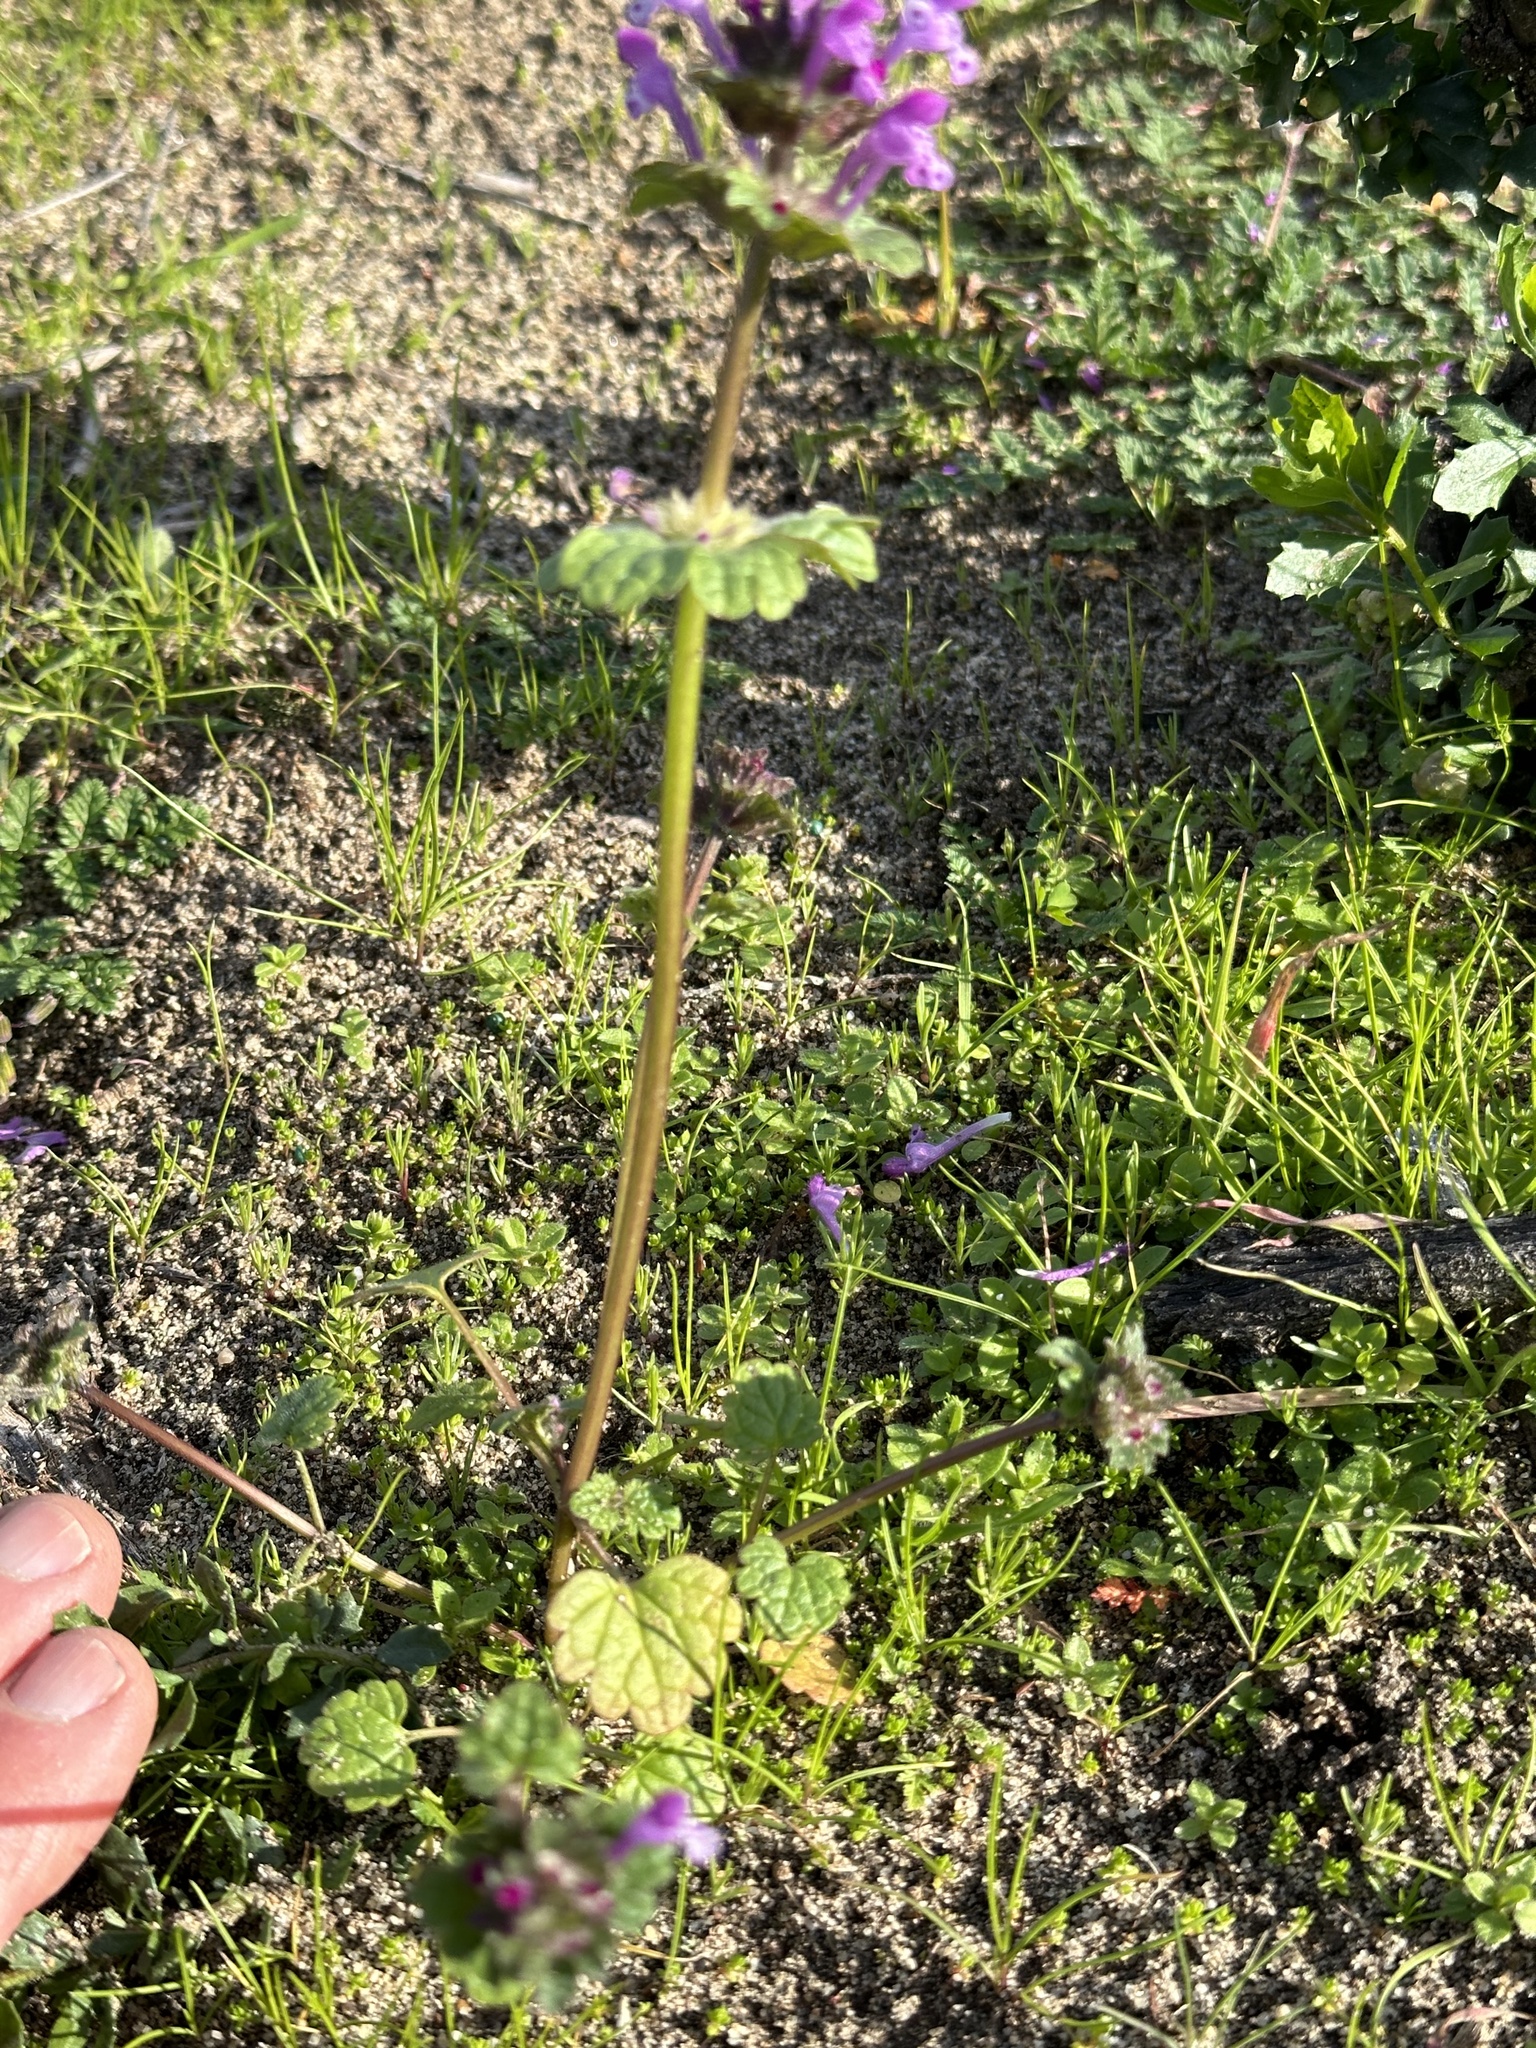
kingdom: Plantae
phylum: Tracheophyta
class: Magnoliopsida
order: Lamiales
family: Lamiaceae
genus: Lamium
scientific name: Lamium amplexicaule
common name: Henbit dead-nettle
